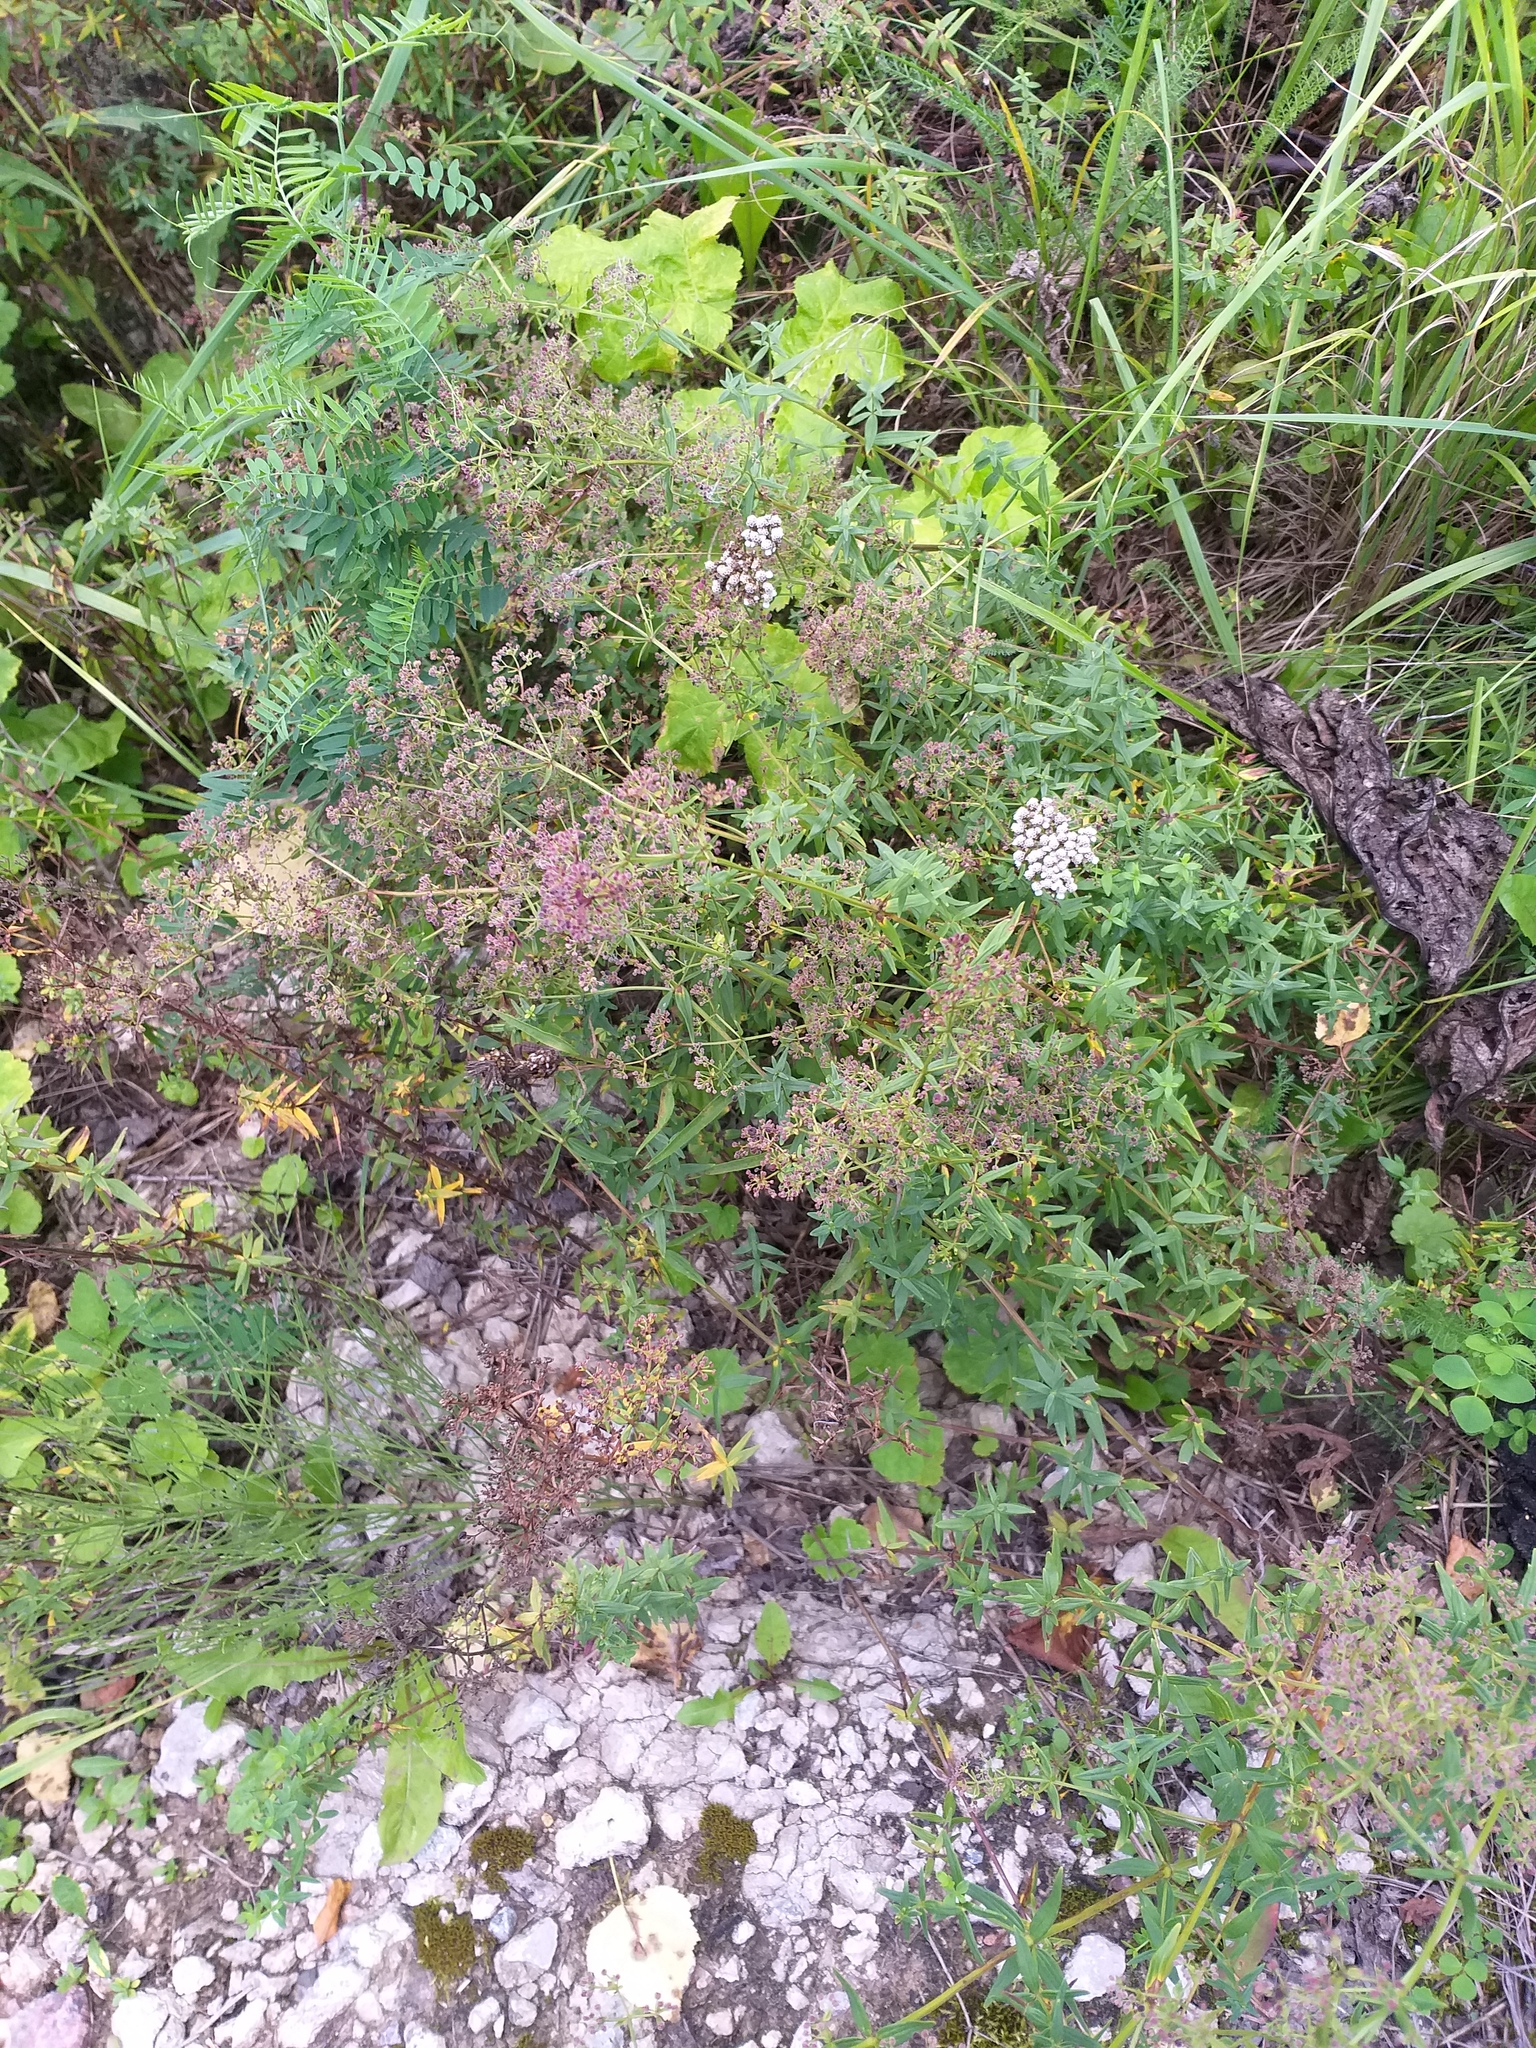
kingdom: Plantae
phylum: Tracheophyta
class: Magnoliopsida
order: Gentianales
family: Rubiaceae
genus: Galium
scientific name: Galium boreale
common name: Northern bedstraw
